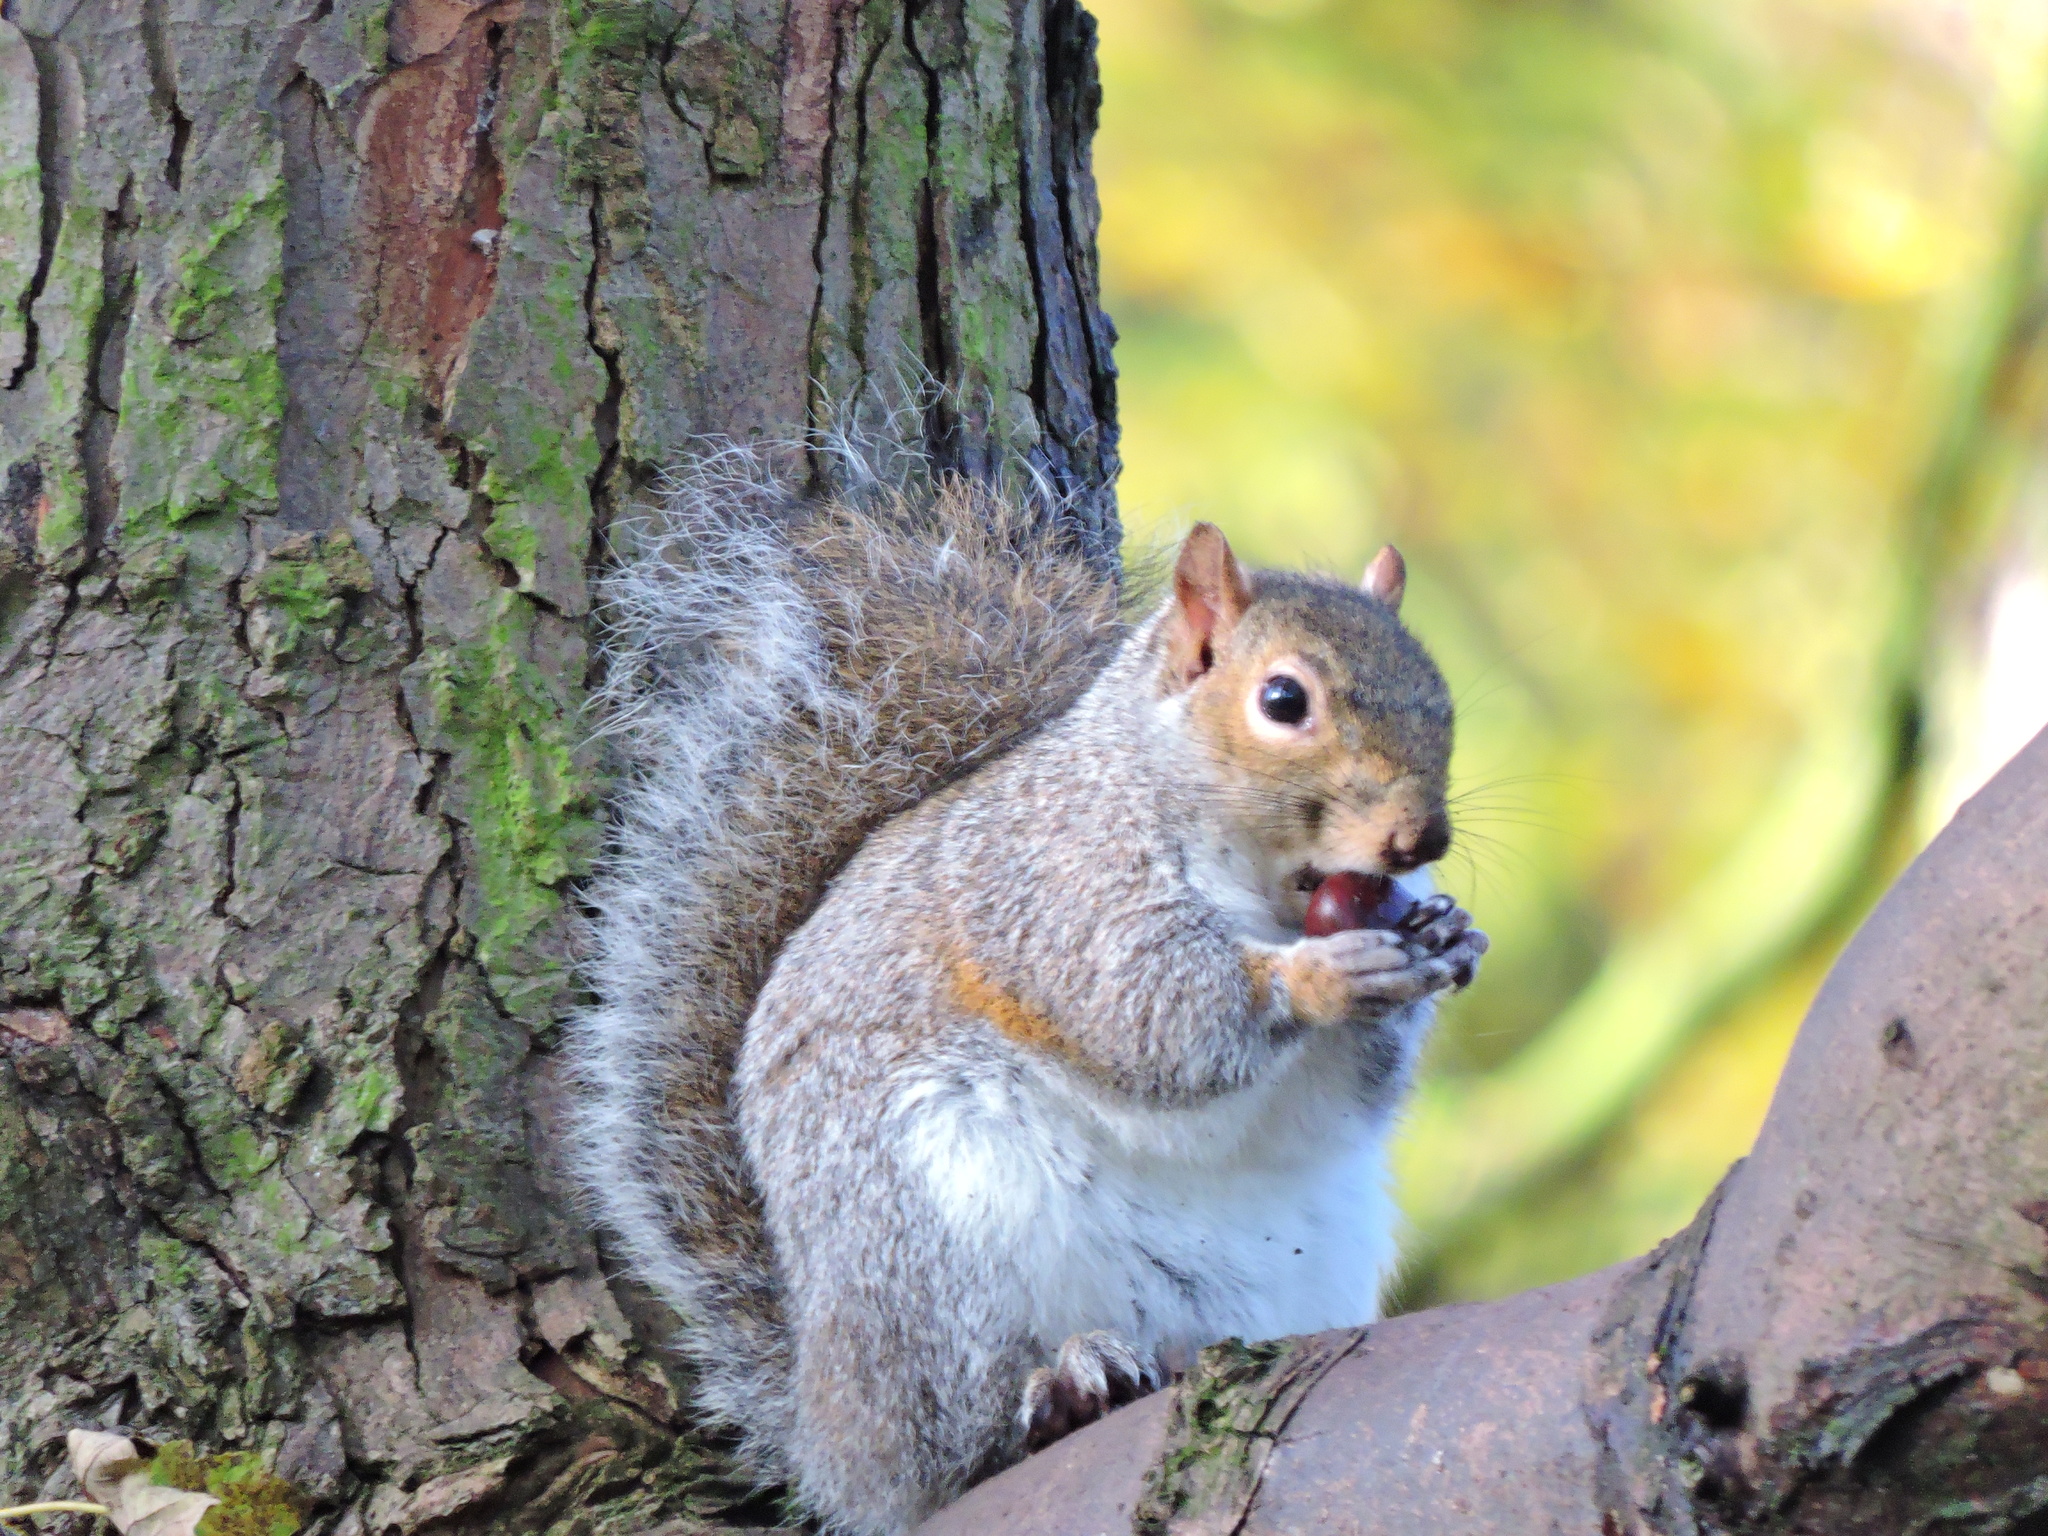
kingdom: Animalia
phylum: Chordata
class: Mammalia
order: Rodentia
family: Sciuridae
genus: Sciurus
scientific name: Sciurus carolinensis
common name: Eastern gray squirrel
